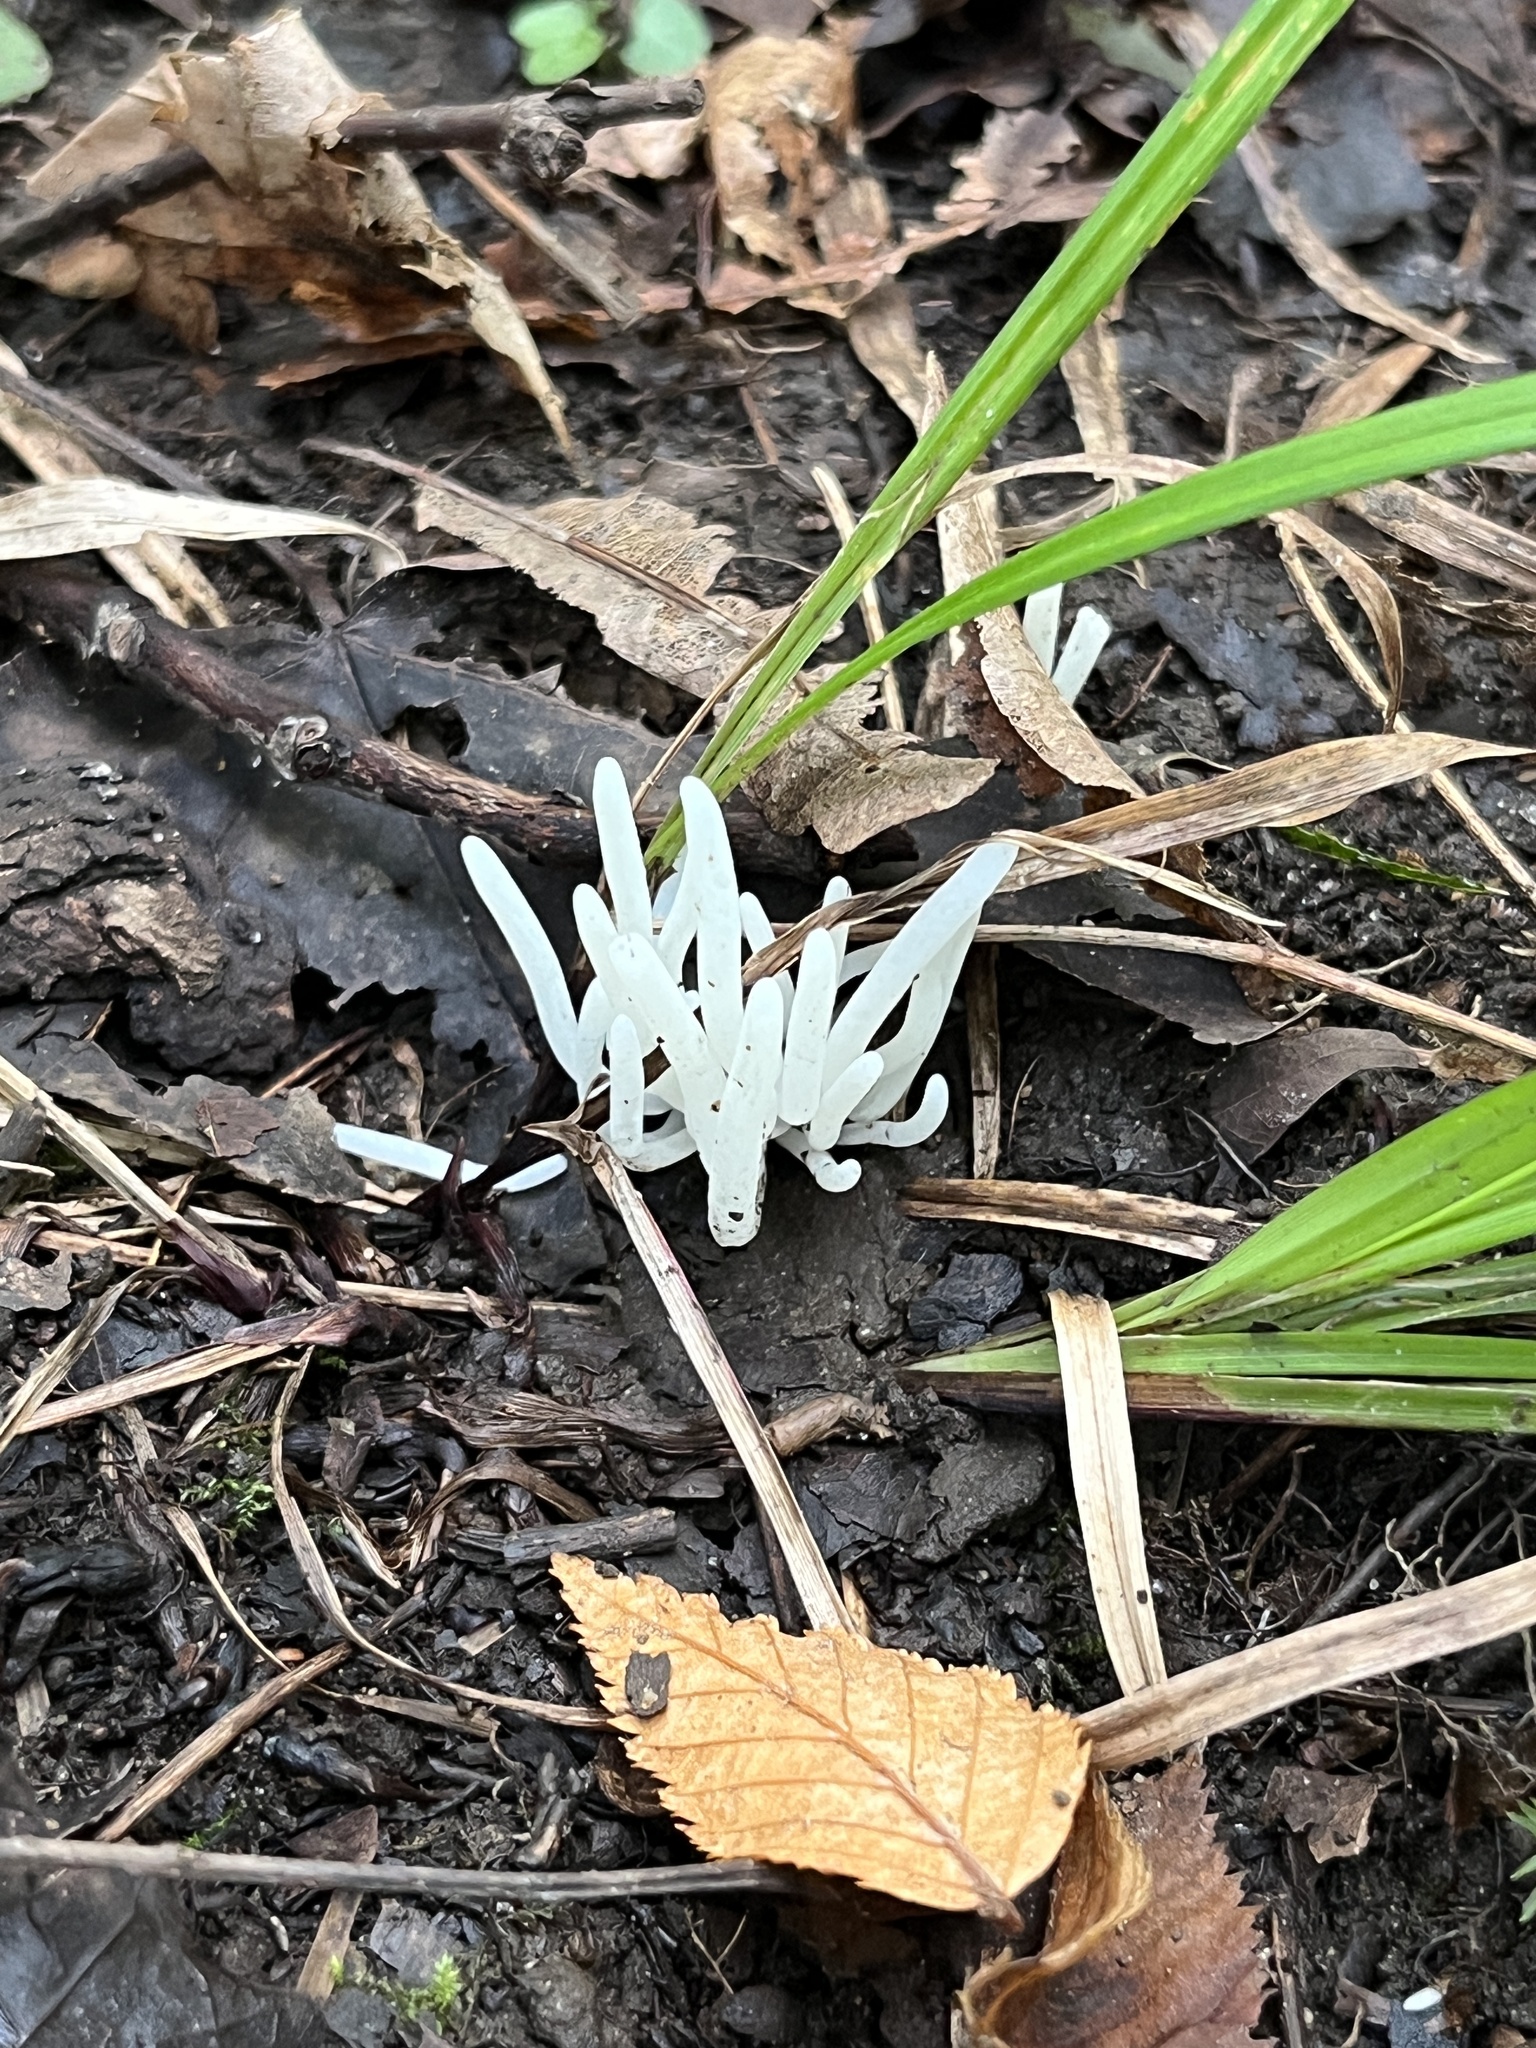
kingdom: Fungi
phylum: Basidiomycota
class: Agaricomycetes
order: Agaricales
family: Clavariaceae
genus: Clavaria
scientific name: Clavaria fragilis
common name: White spindles
